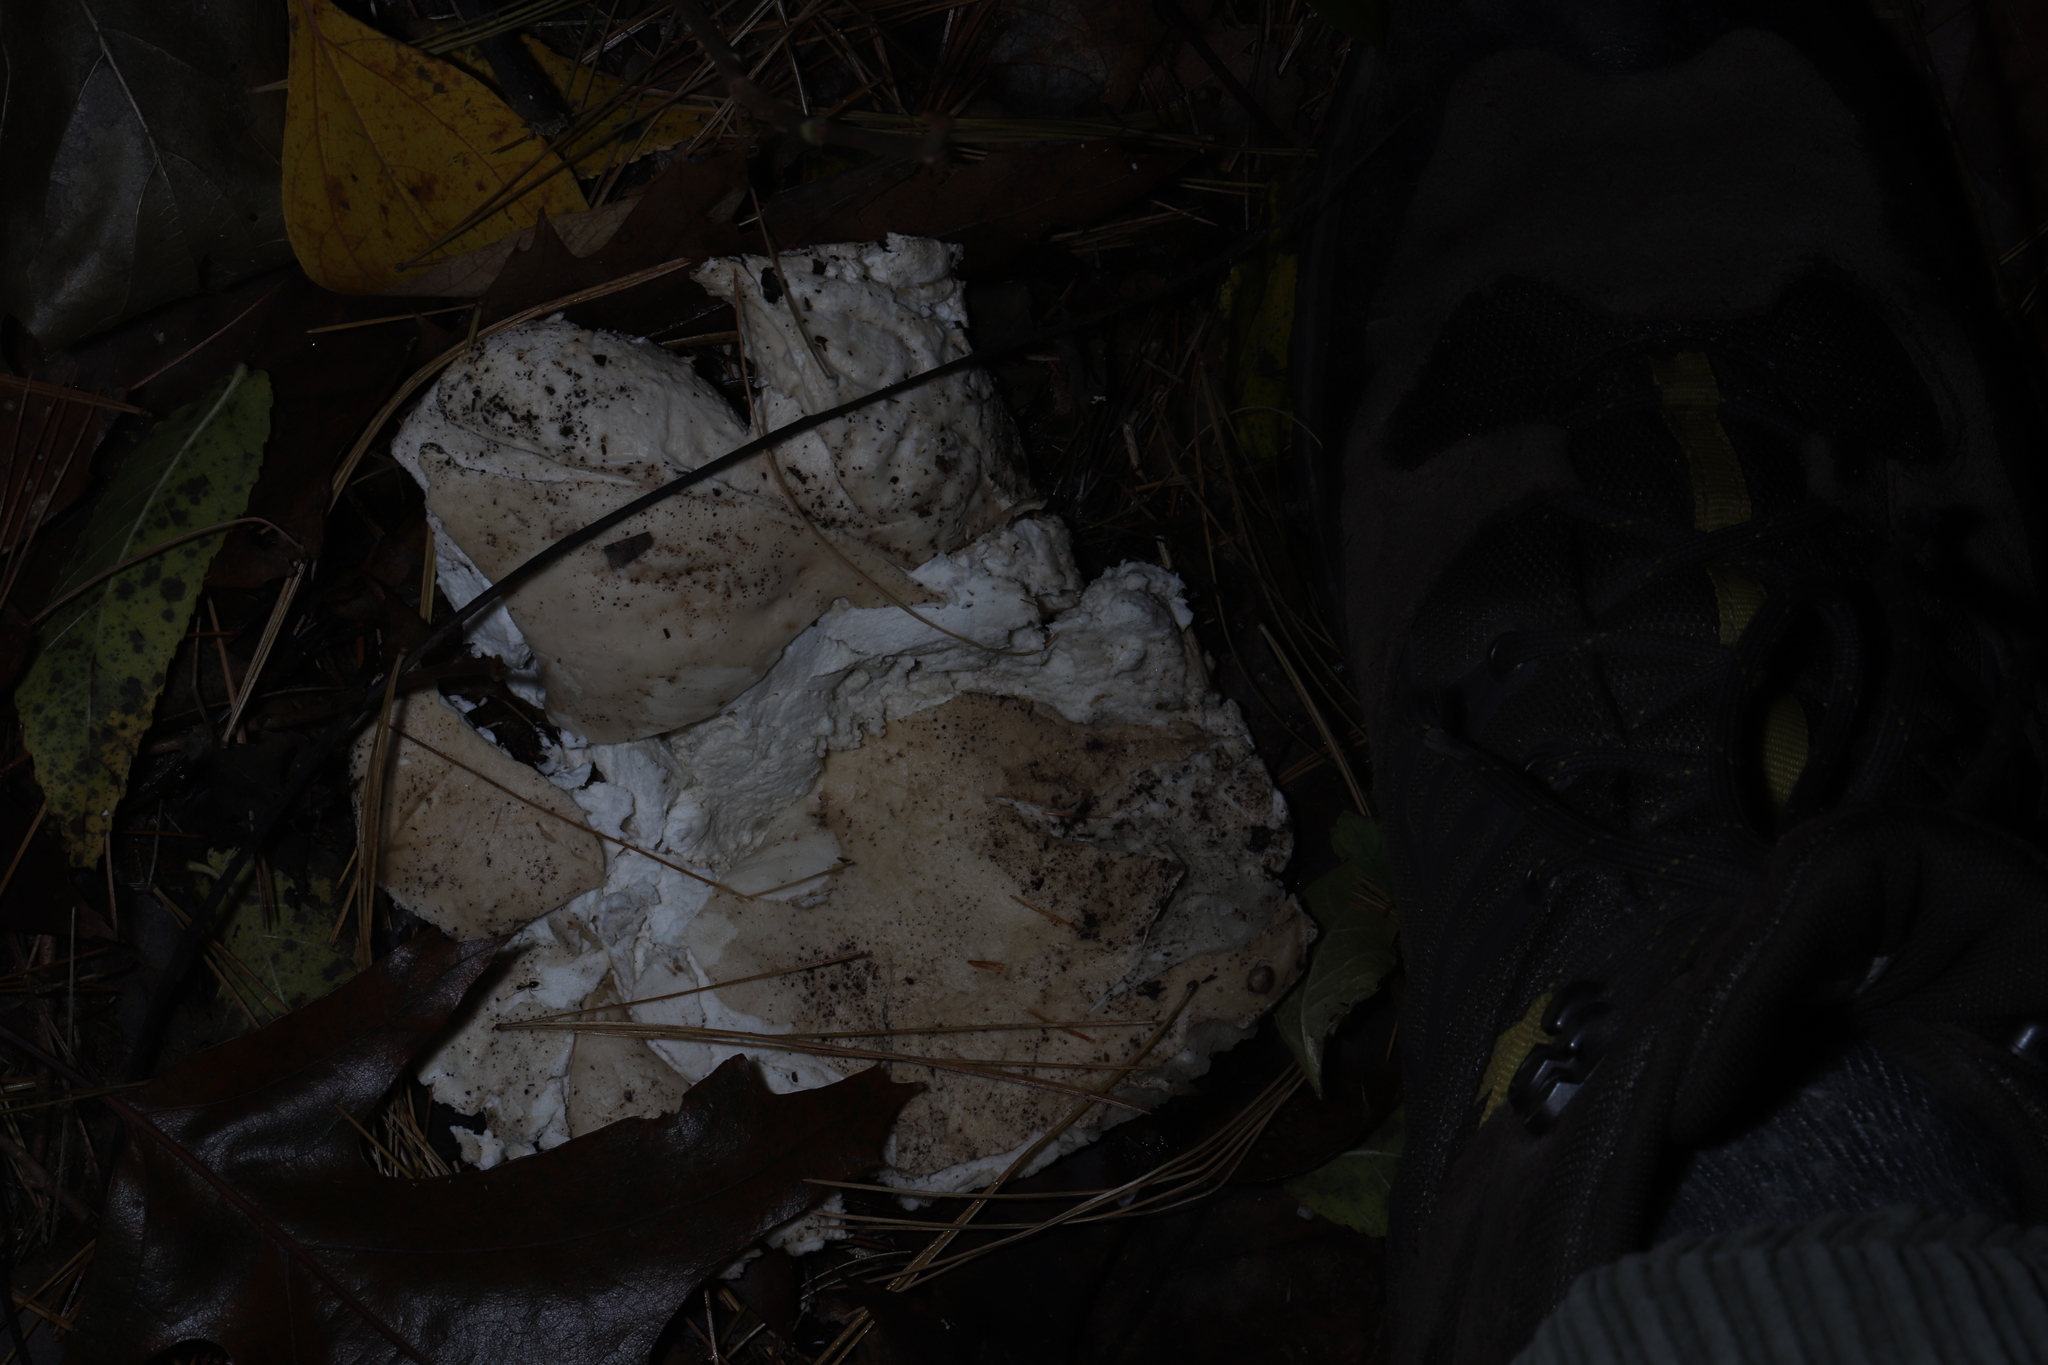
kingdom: Fungi
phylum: Basidiomycota
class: Agaricomycetes
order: Agaricales
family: Lycoperdaceae
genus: Calvatia
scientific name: Calvatia gigantea
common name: Giant puffball
